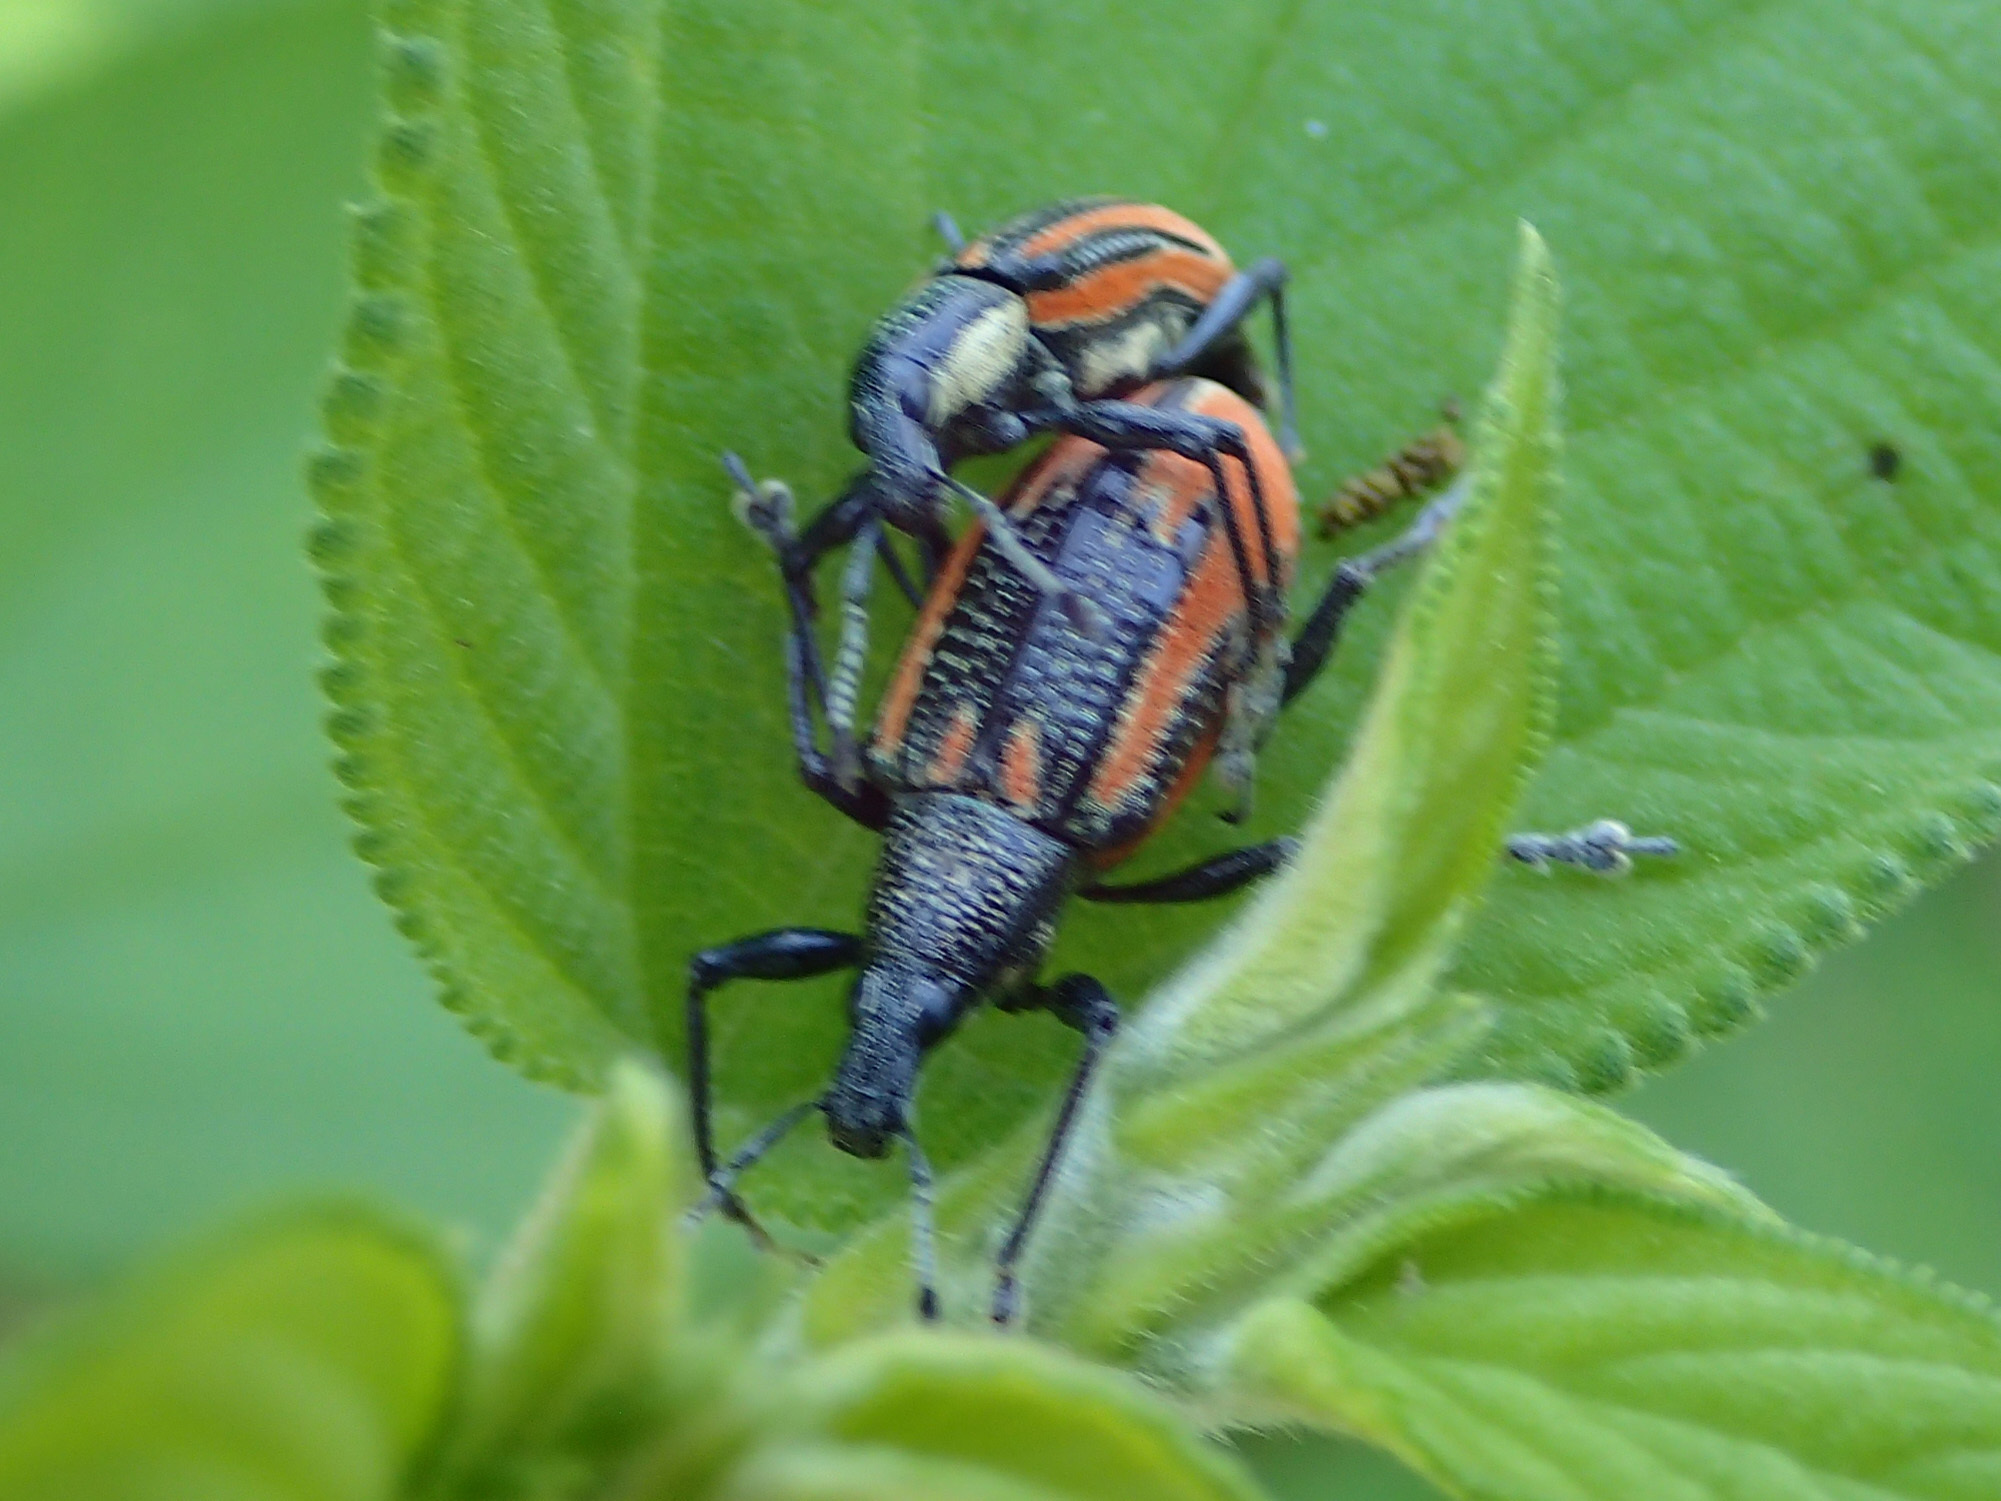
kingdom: Animalia
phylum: Arthropoda
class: Insecta
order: Coleoptera
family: Curculionidae
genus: Diaprepes
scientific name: Diaprepes abbreviatus
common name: Root weevil
